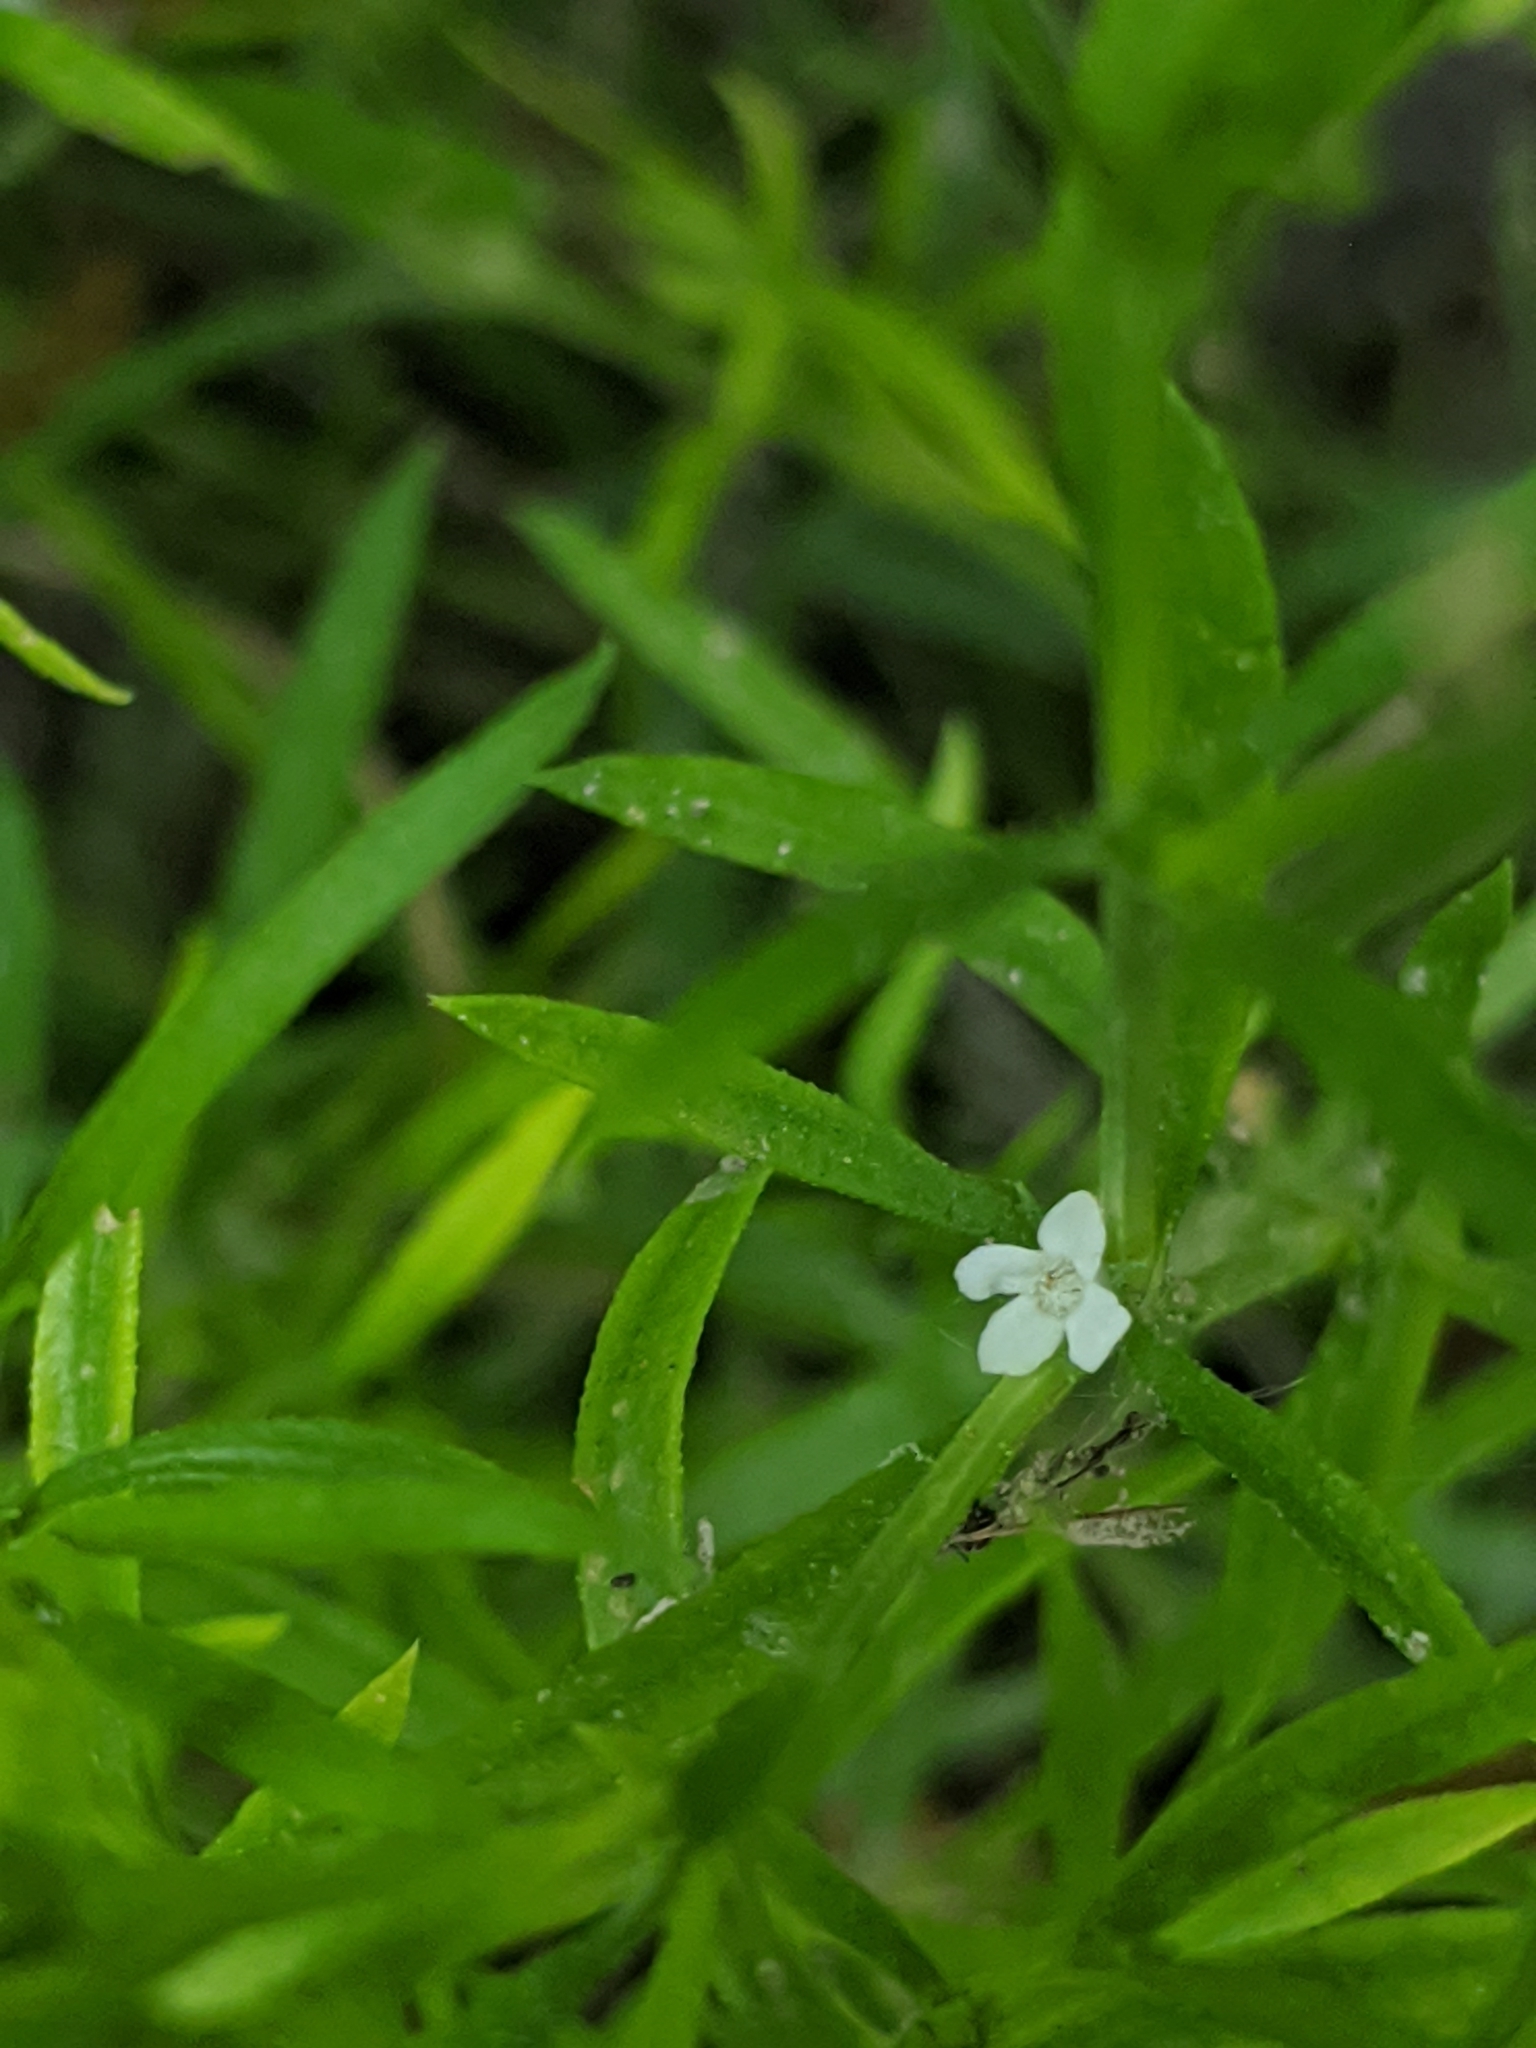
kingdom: Plantae
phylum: Tracheophyta
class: Magnoliopsida
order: Lamiales
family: Tetrachondraceae
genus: Polypremum
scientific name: Polypremum procumbens
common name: Juniper-leaf
